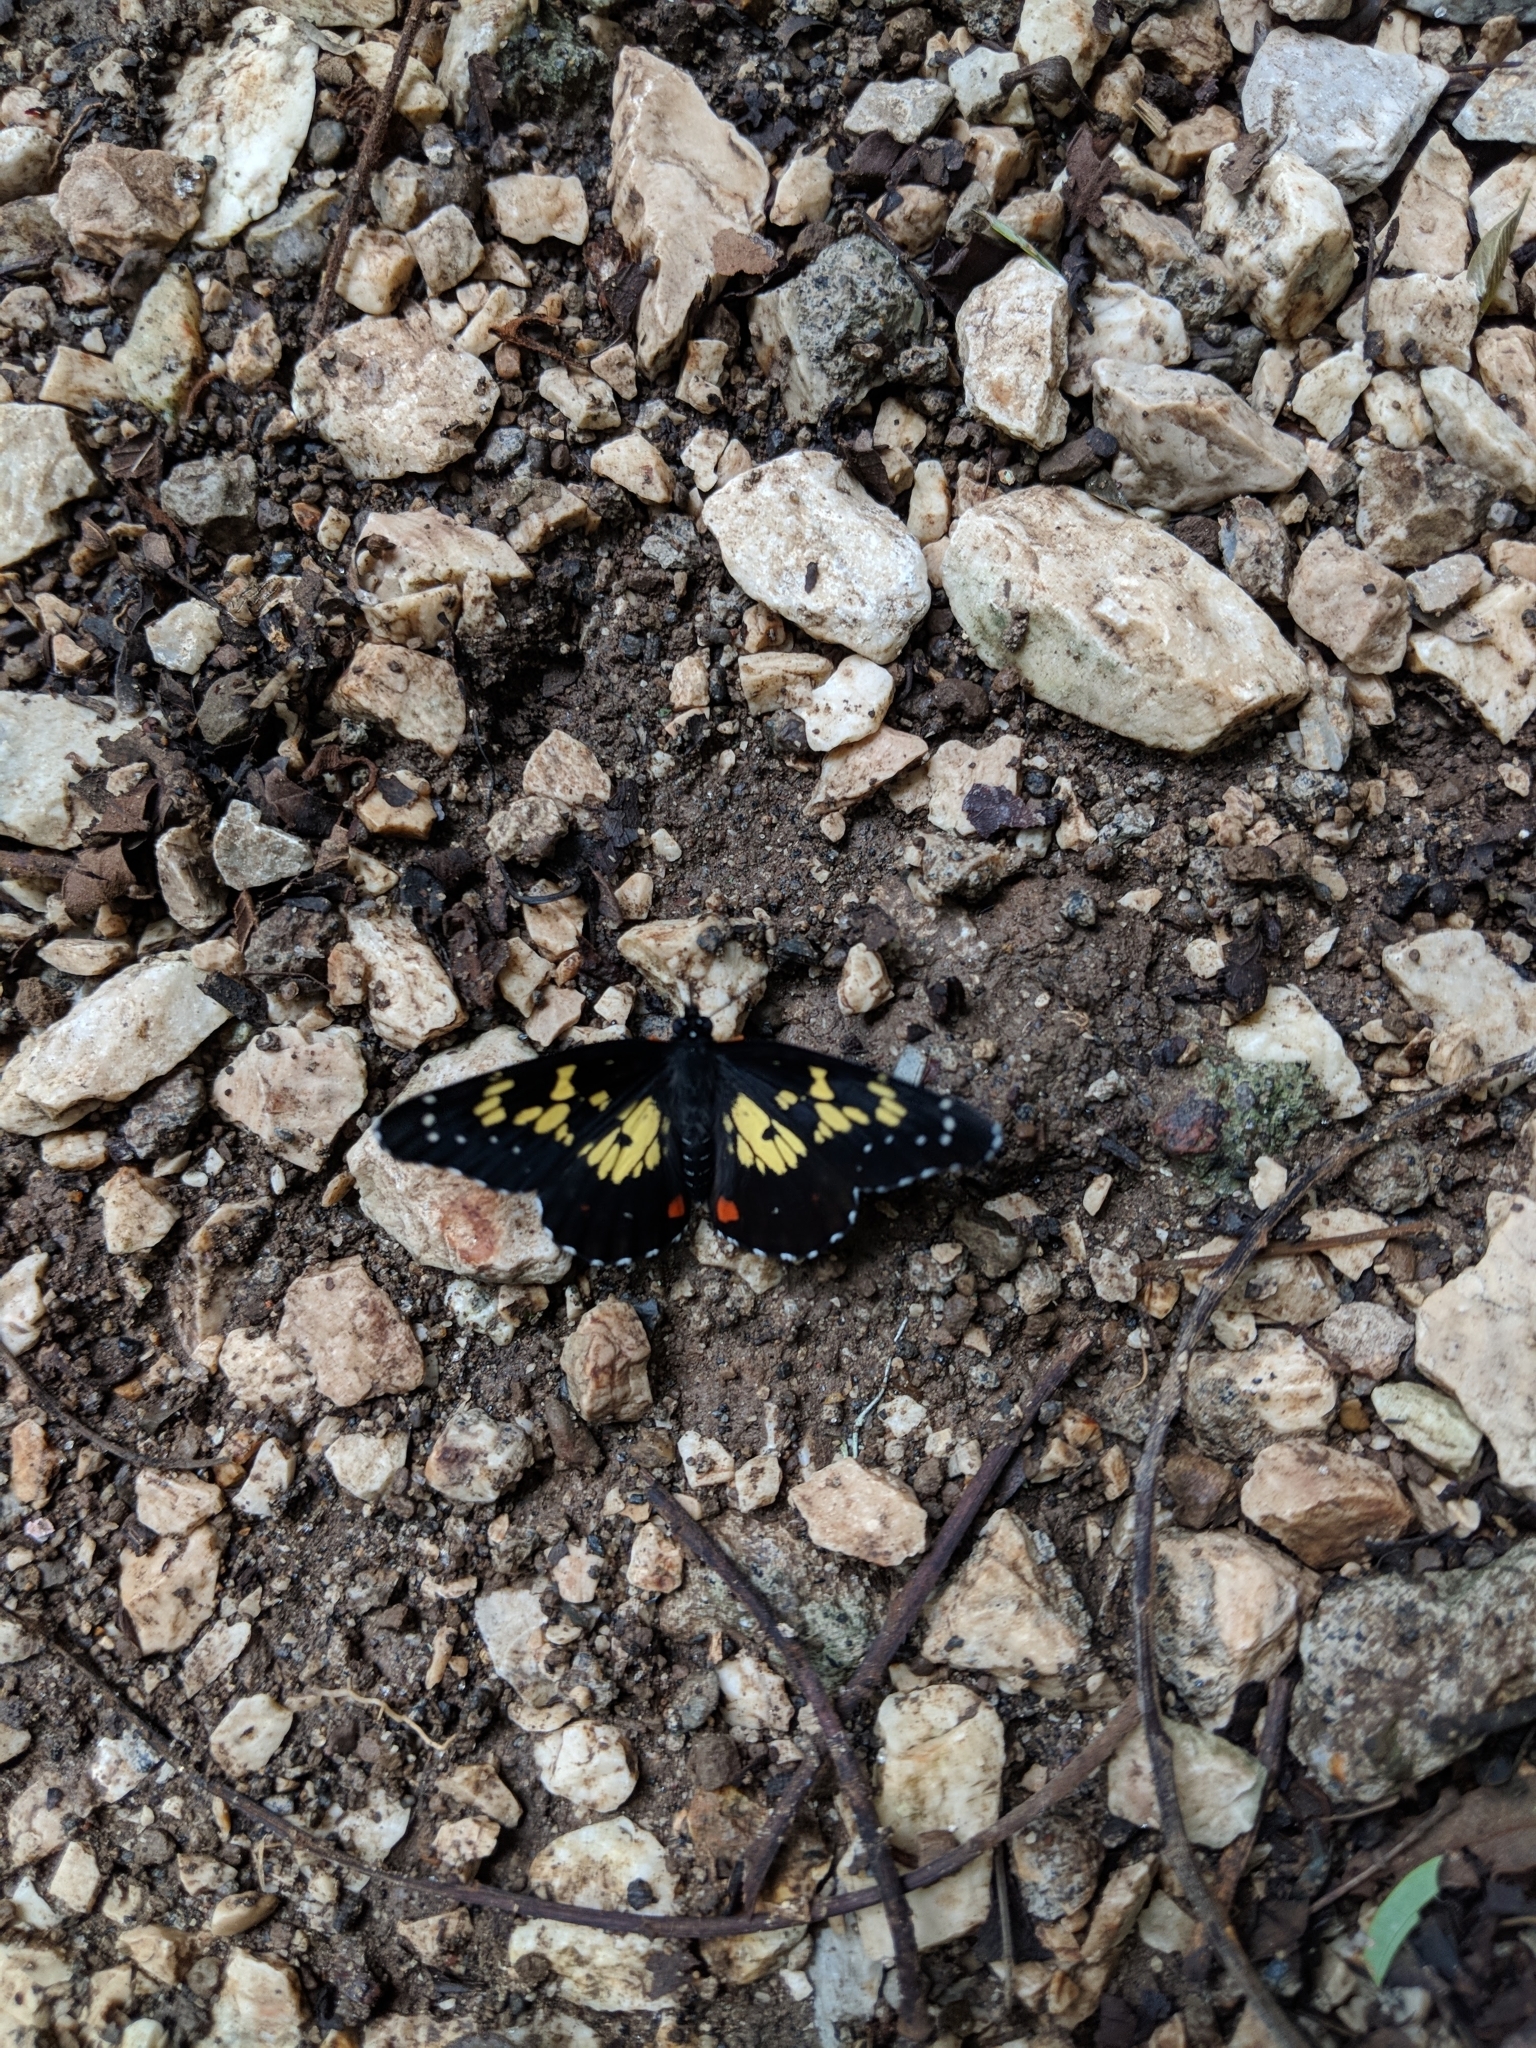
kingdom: Animalia
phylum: Arthropoda
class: Insecta
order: Lepidoptera
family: Nymphalidae
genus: Chlosyne
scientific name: Chlosyne poecile
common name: Poecile checkerspot
